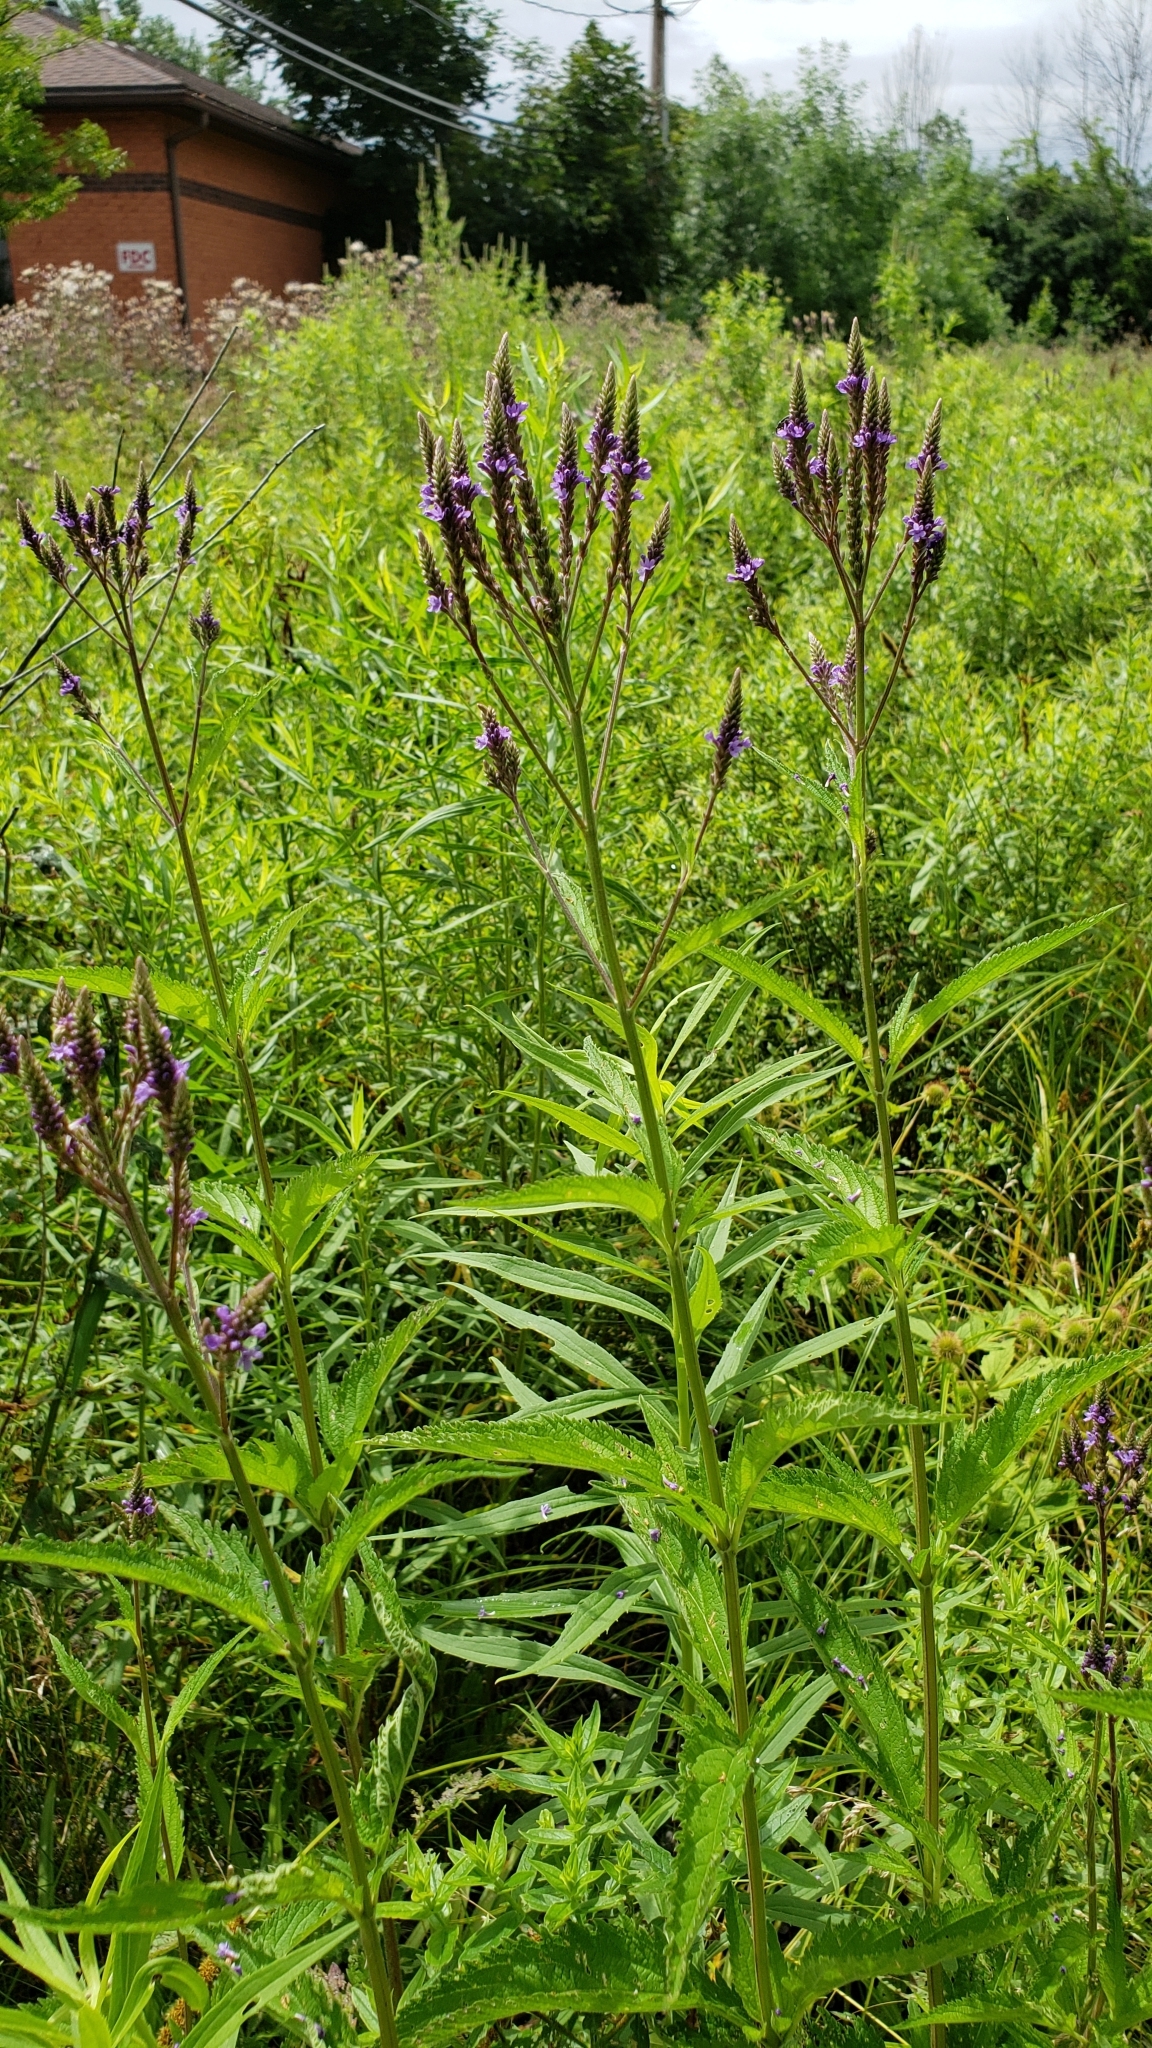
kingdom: Plantae
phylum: Tracheophyta
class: Magnoliopsida
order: Lamiales
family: Verbenaceae
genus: Verbena
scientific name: Verbena hastata
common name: American blue vervain
